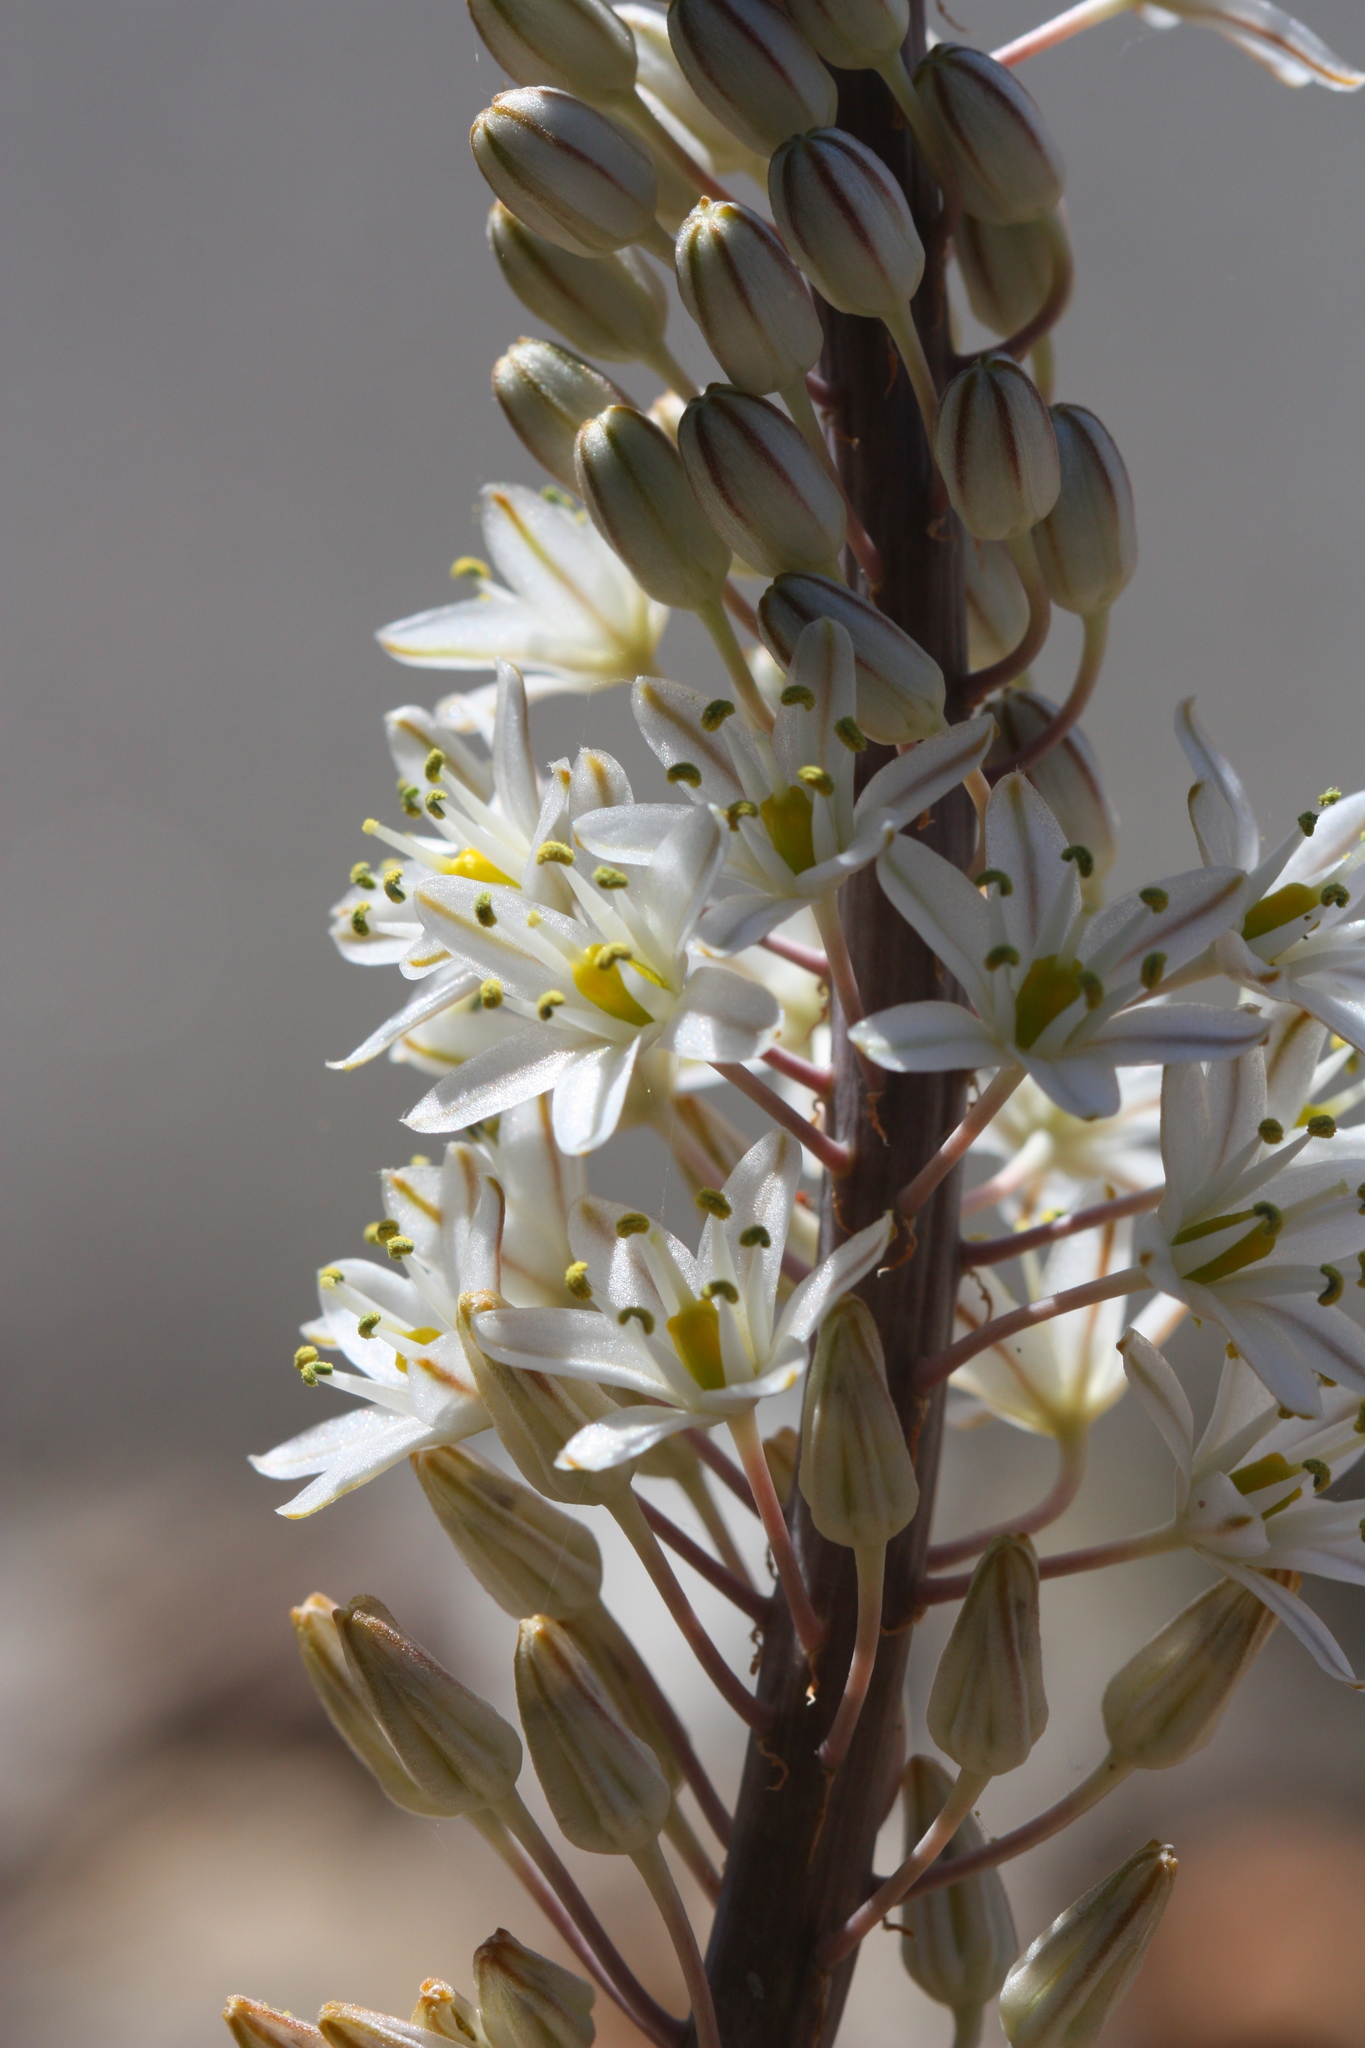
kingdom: Plantae
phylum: Tracheophyta
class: Liliopsida
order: Asparagales
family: Asparagaceae
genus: Drimia
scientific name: Drimia maritima
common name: Maritime squill
